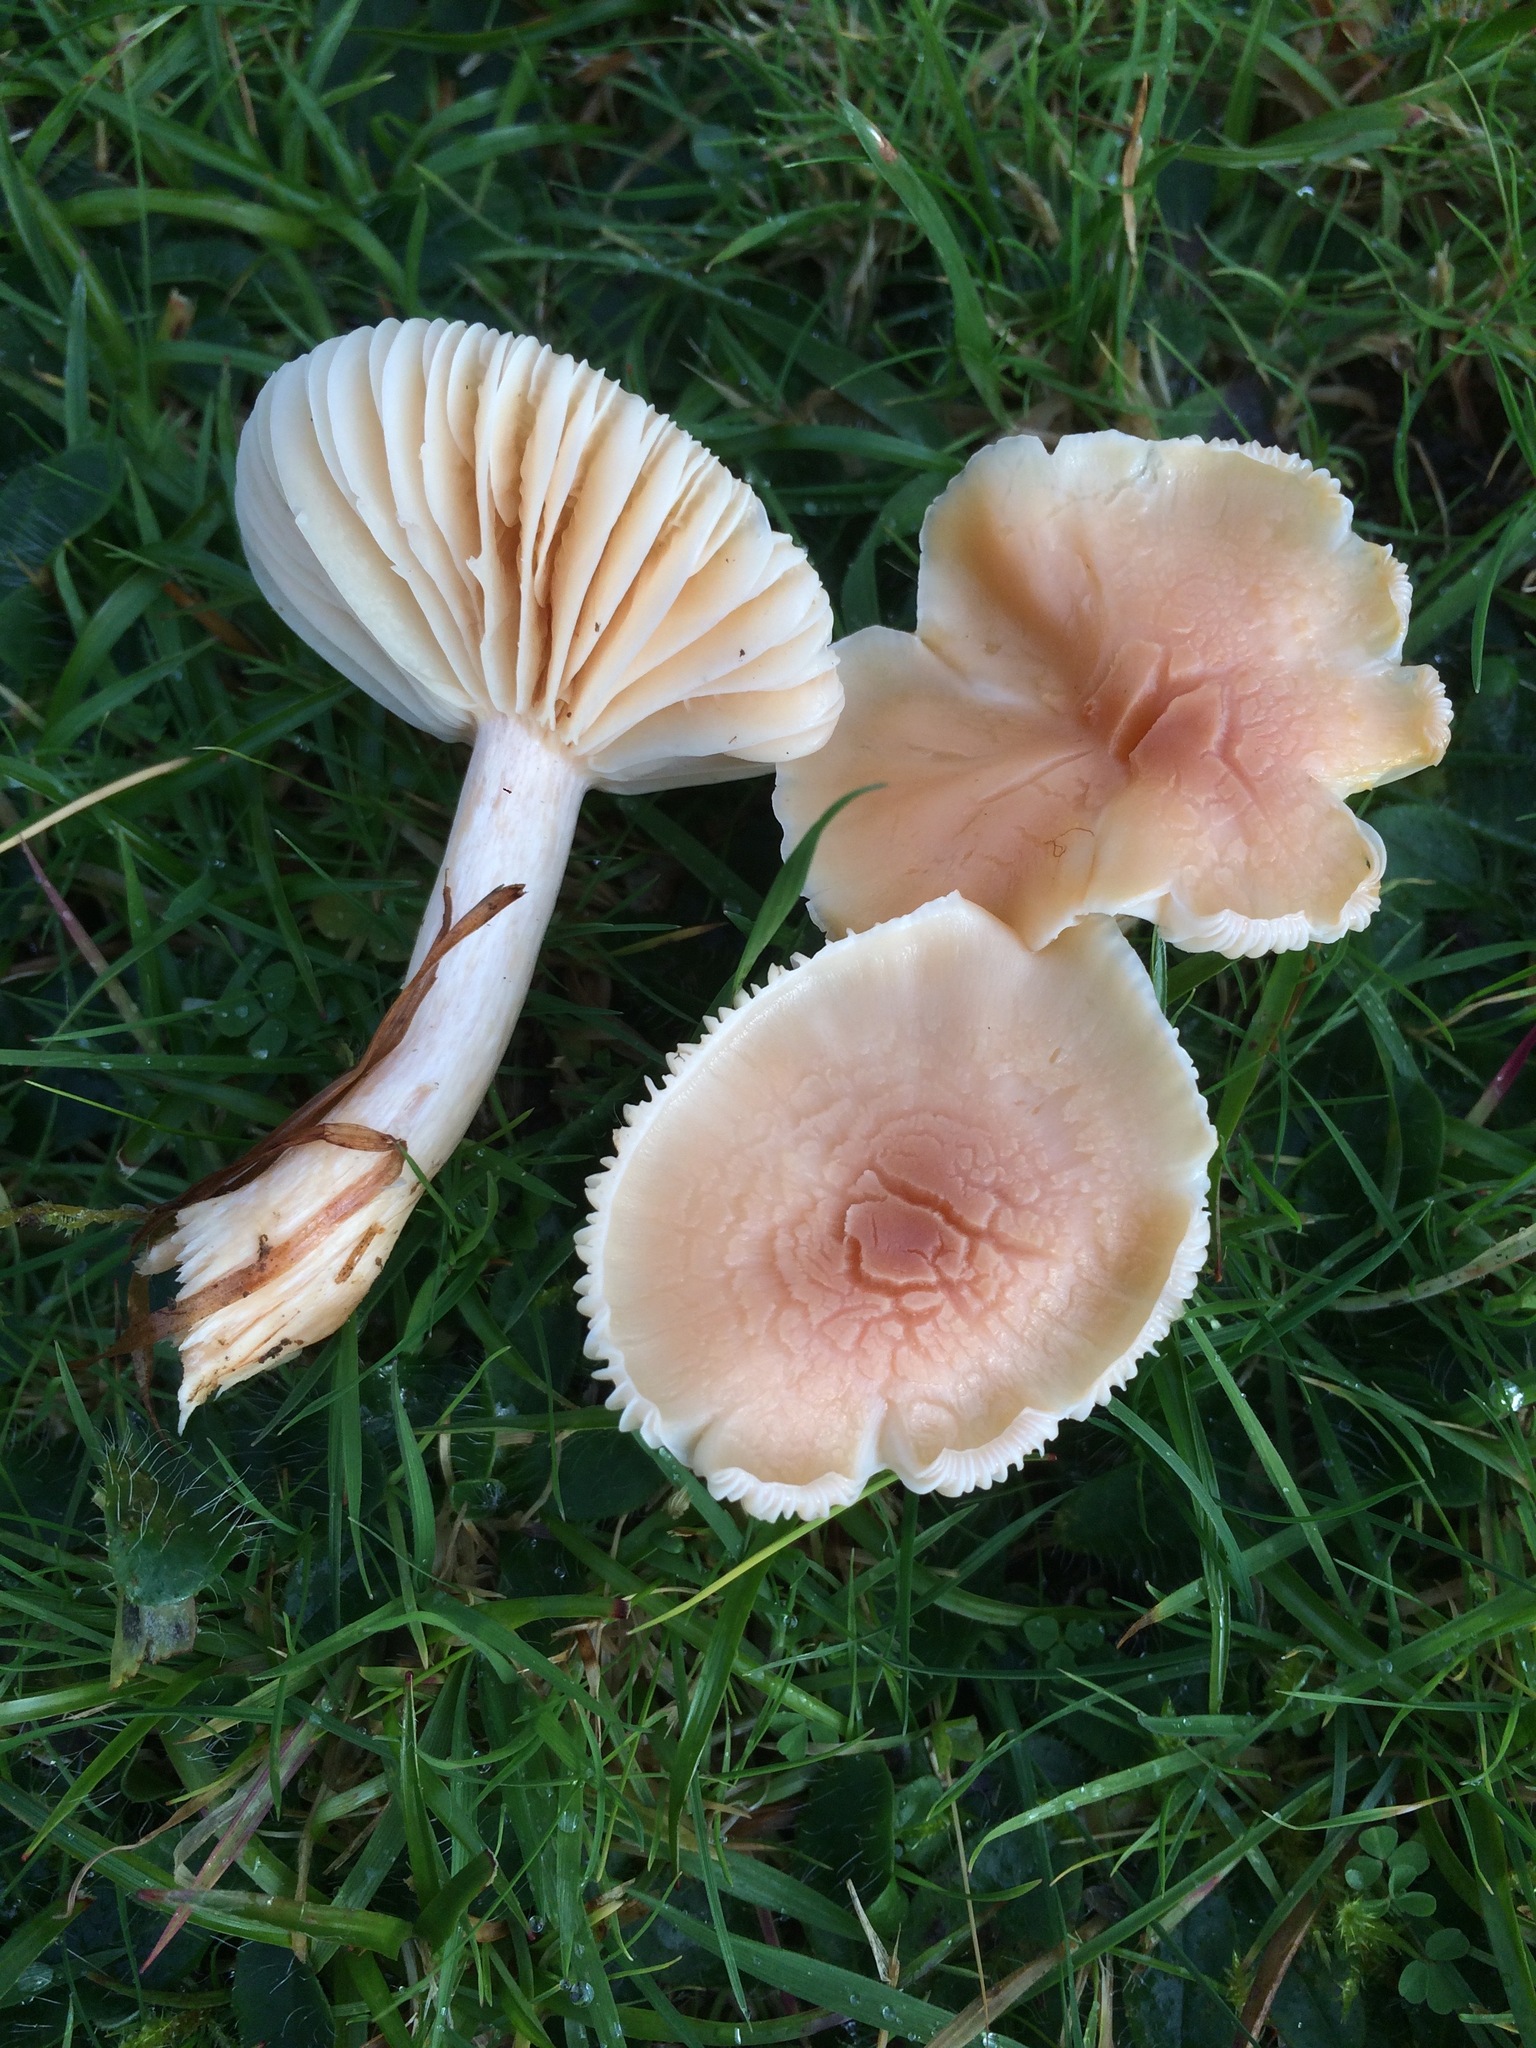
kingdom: Fungi
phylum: Basidiomycota
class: Agaricomycetes
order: Agaricales
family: Hygrophoraceae
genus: Cuphophyllus
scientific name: Cuphophyllus pratensis
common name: Meadow waxcap
